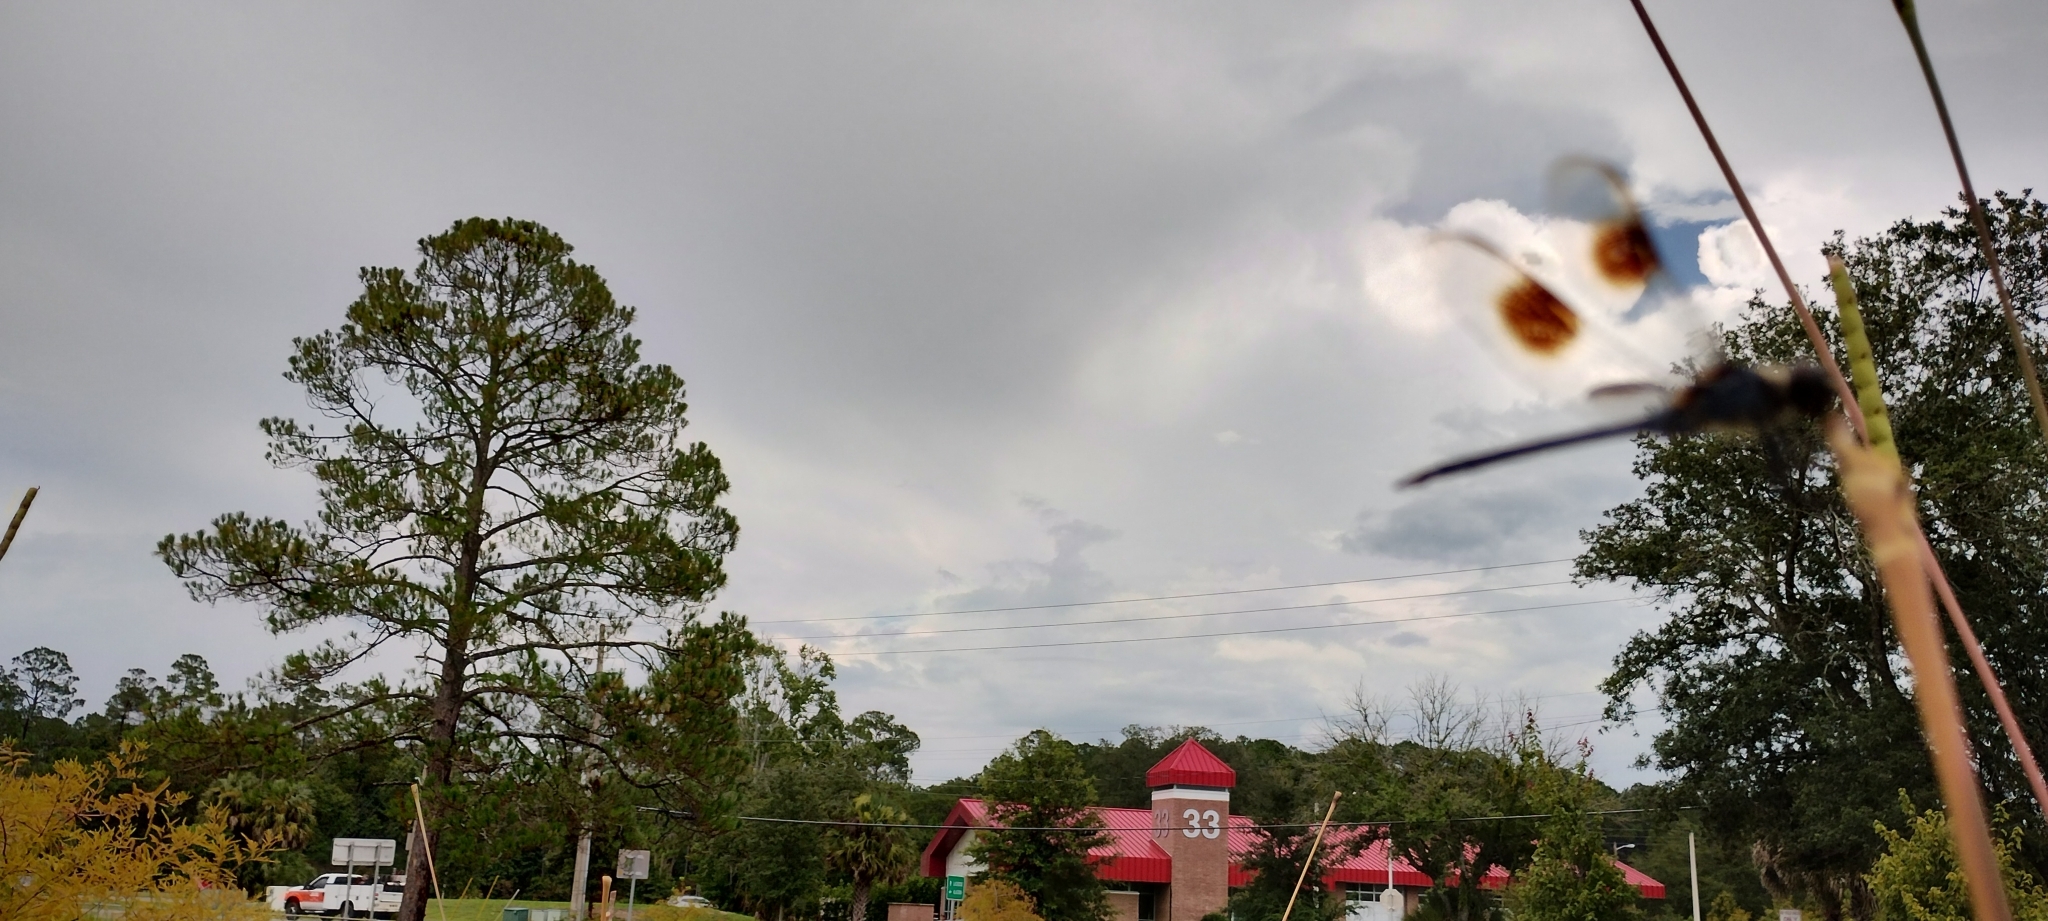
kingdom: Animalia
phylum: Arthropoda
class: Insecta
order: Odonata
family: Libellulidae
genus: Brachymesia
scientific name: Brachymesia gravida
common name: Four-spotted pennant
